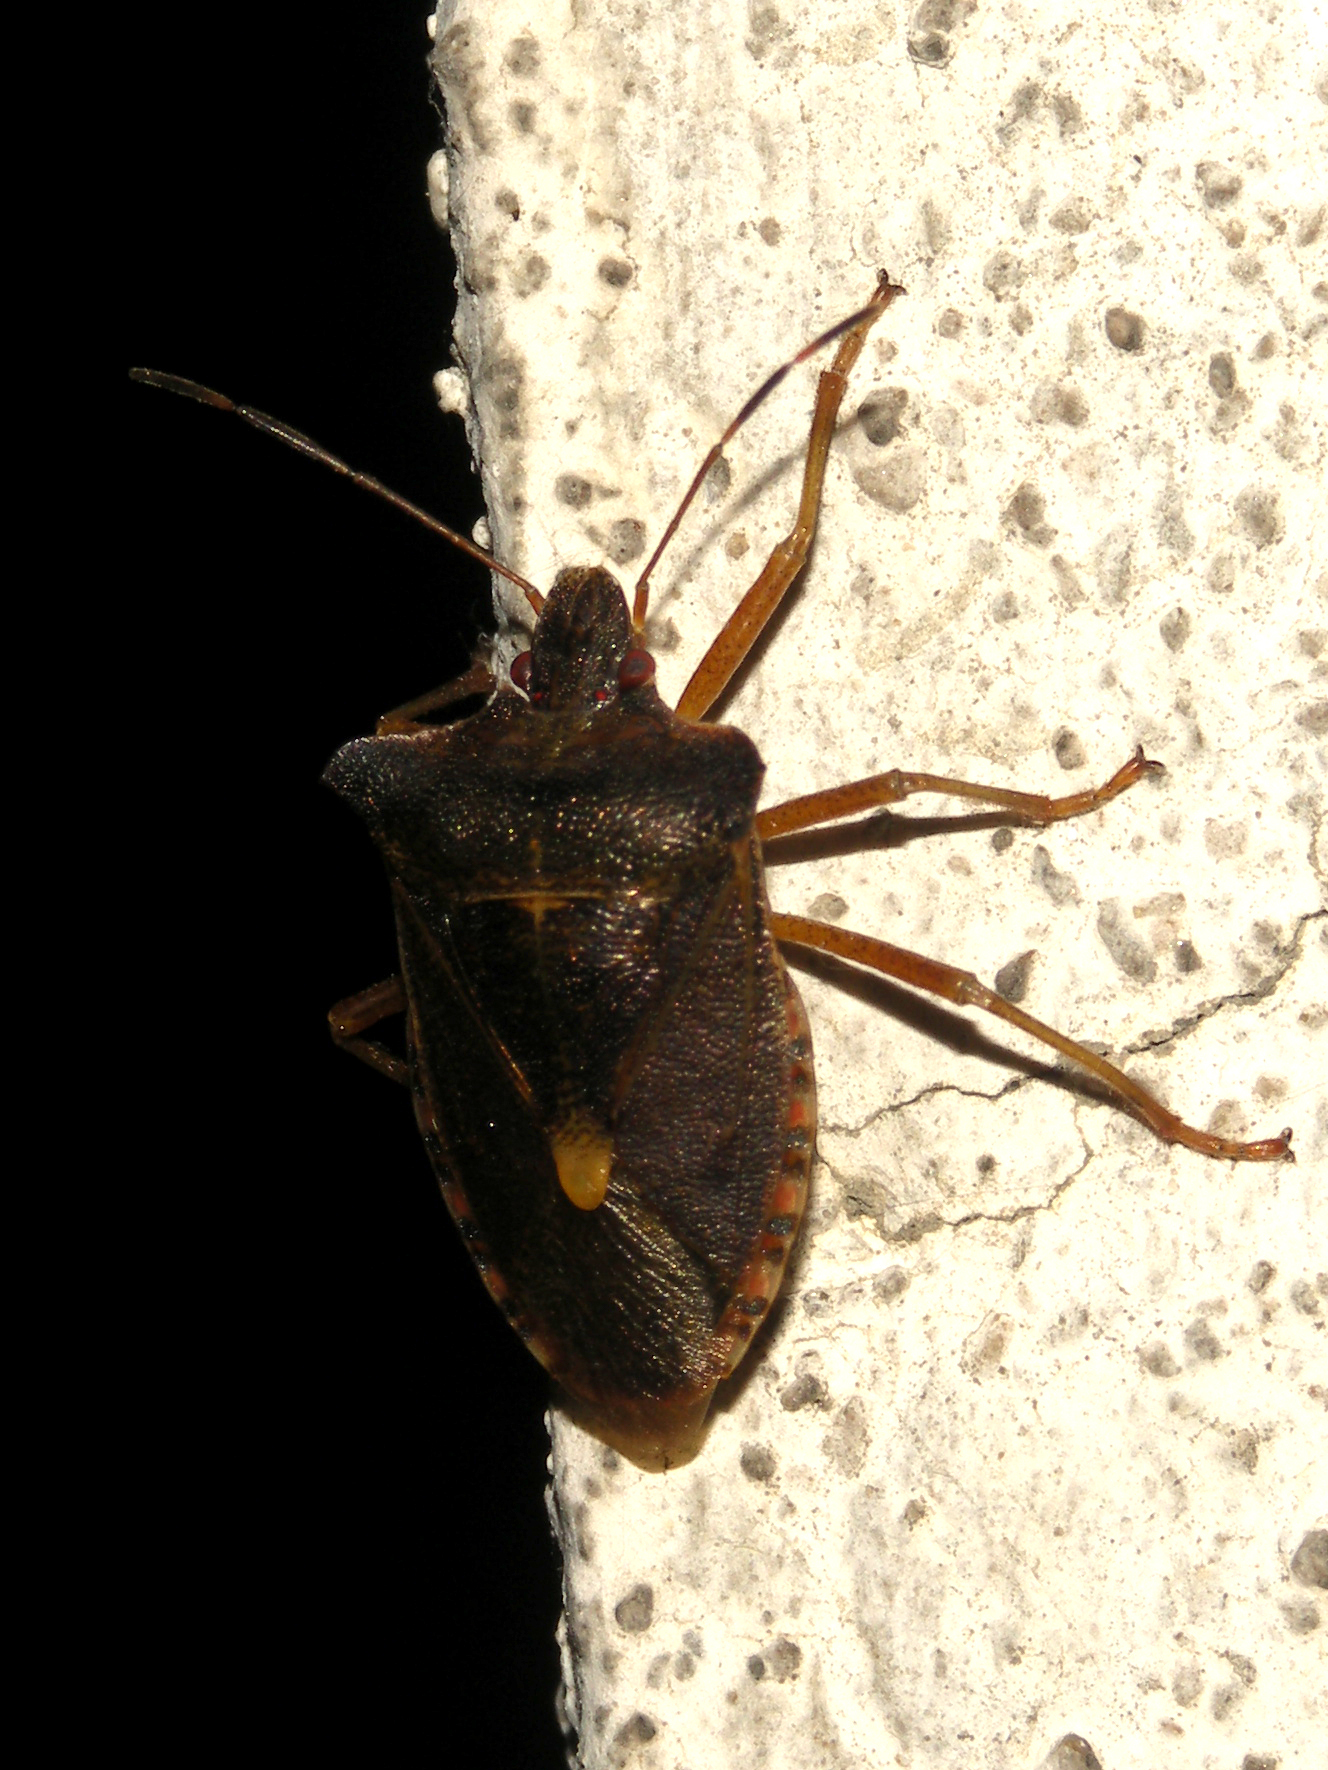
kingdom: Animalia
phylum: Arthropoda
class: Insecta
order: Hemiptera
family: Pentatomidae
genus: Pentatoma
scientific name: Pentatoma rufipes
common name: Forest bug
